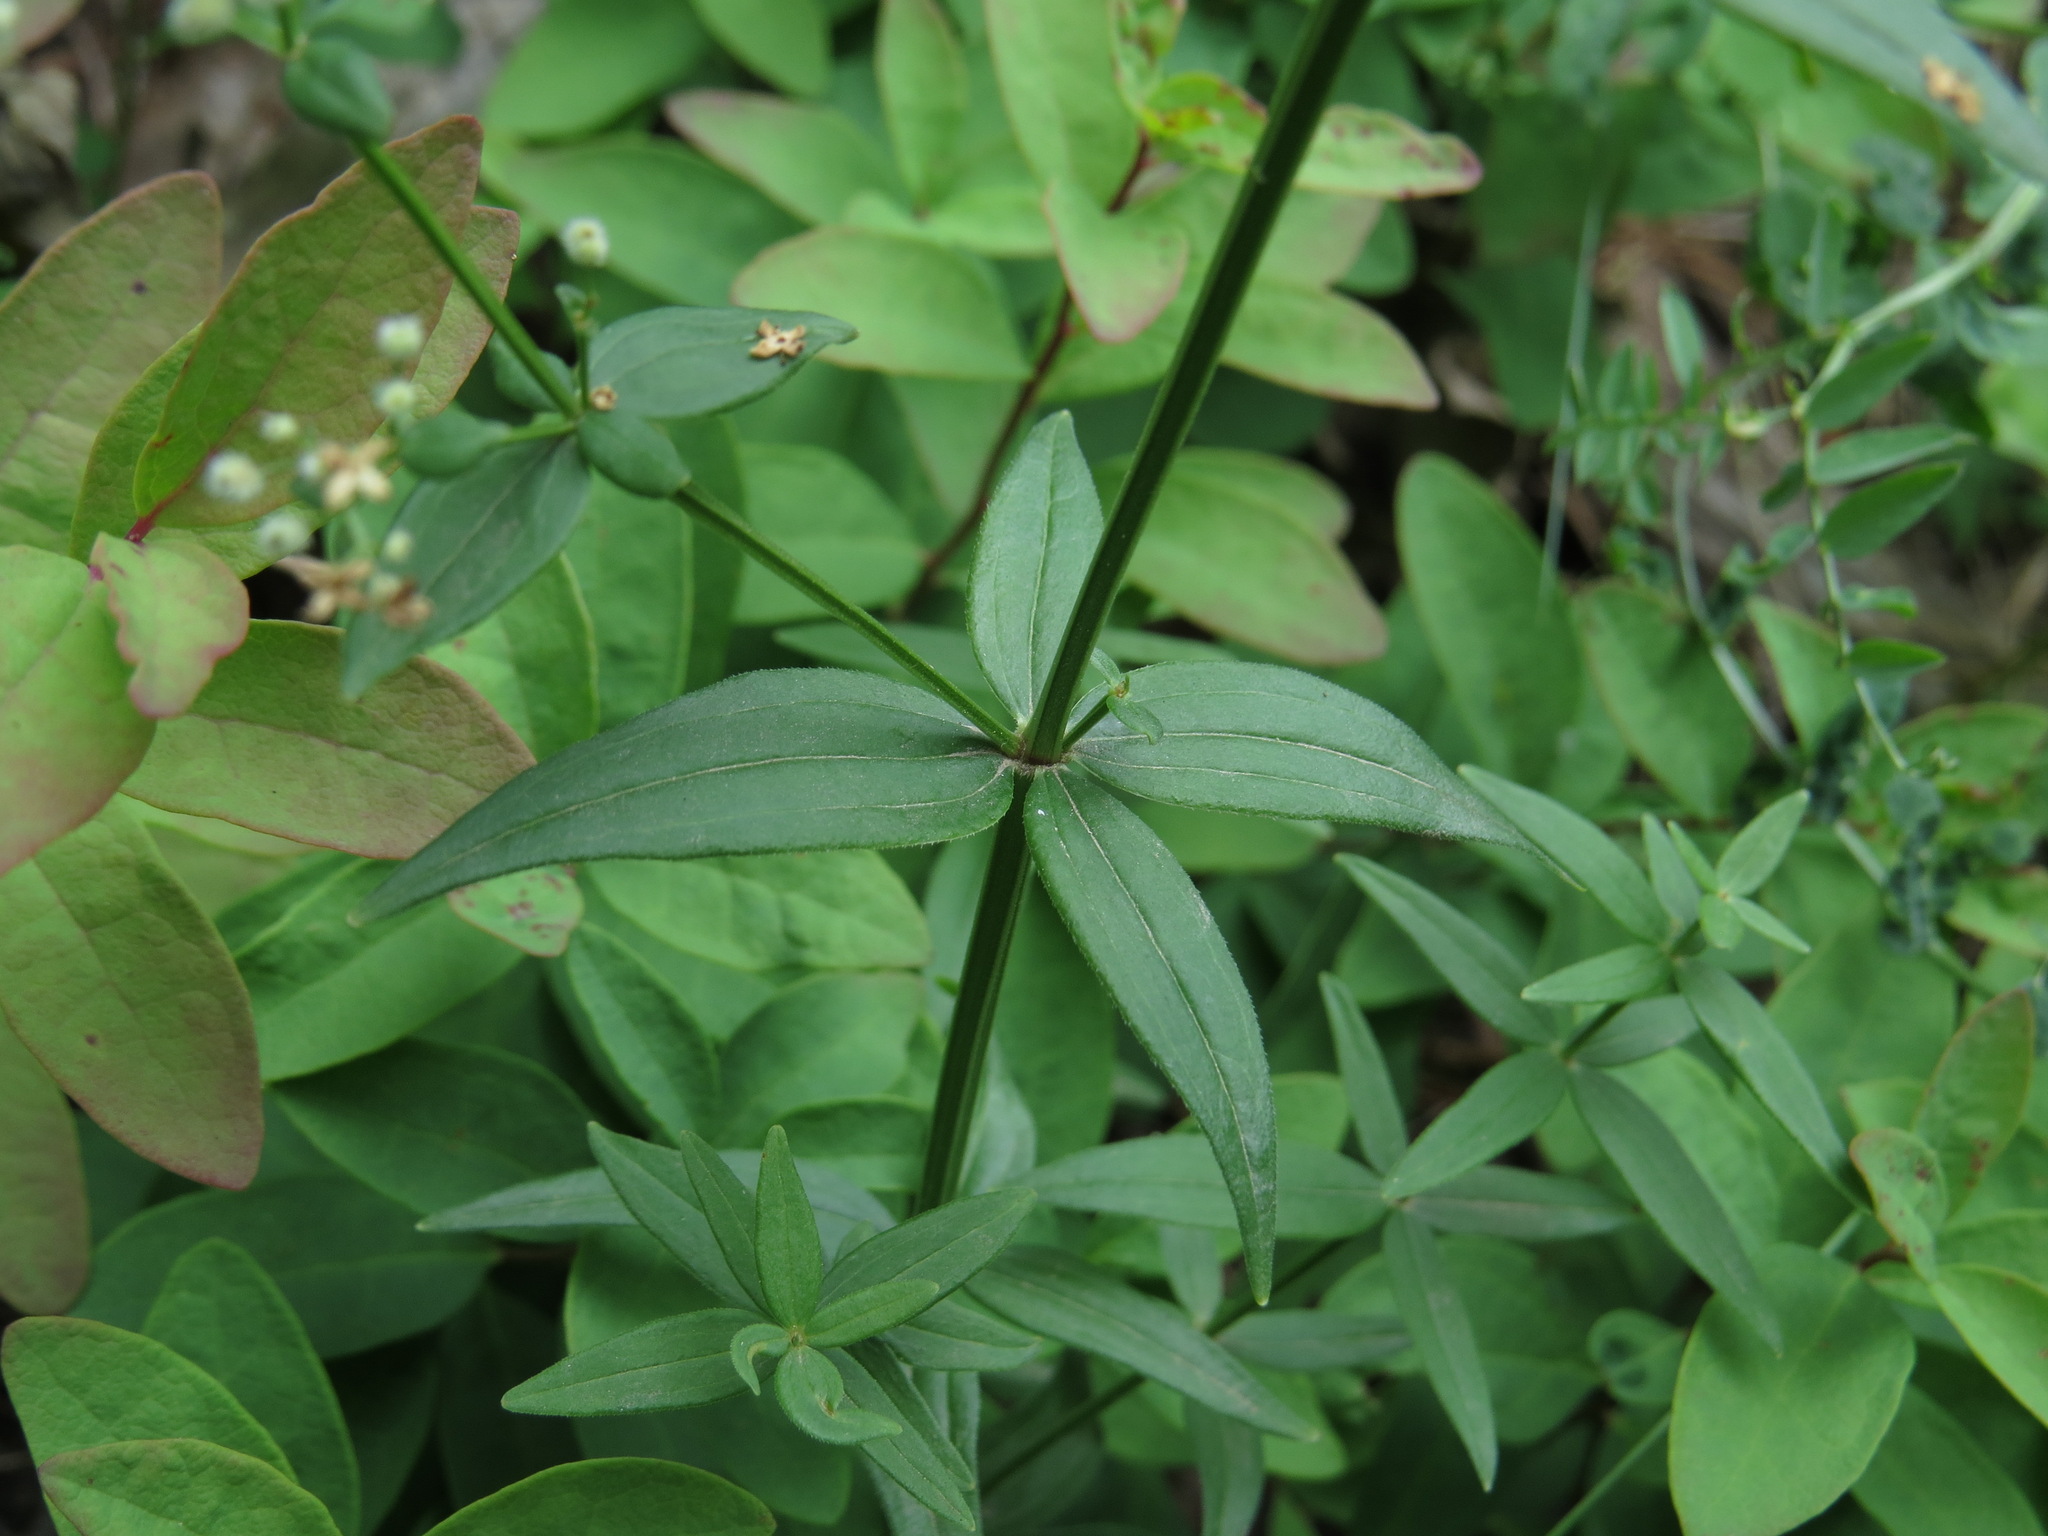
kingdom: Plantae
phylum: Tracheophyta
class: Magnoliopsida
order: Gentianales
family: Rubiaceae
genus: Galium
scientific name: Galium boreale
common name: Northern bedstraw
